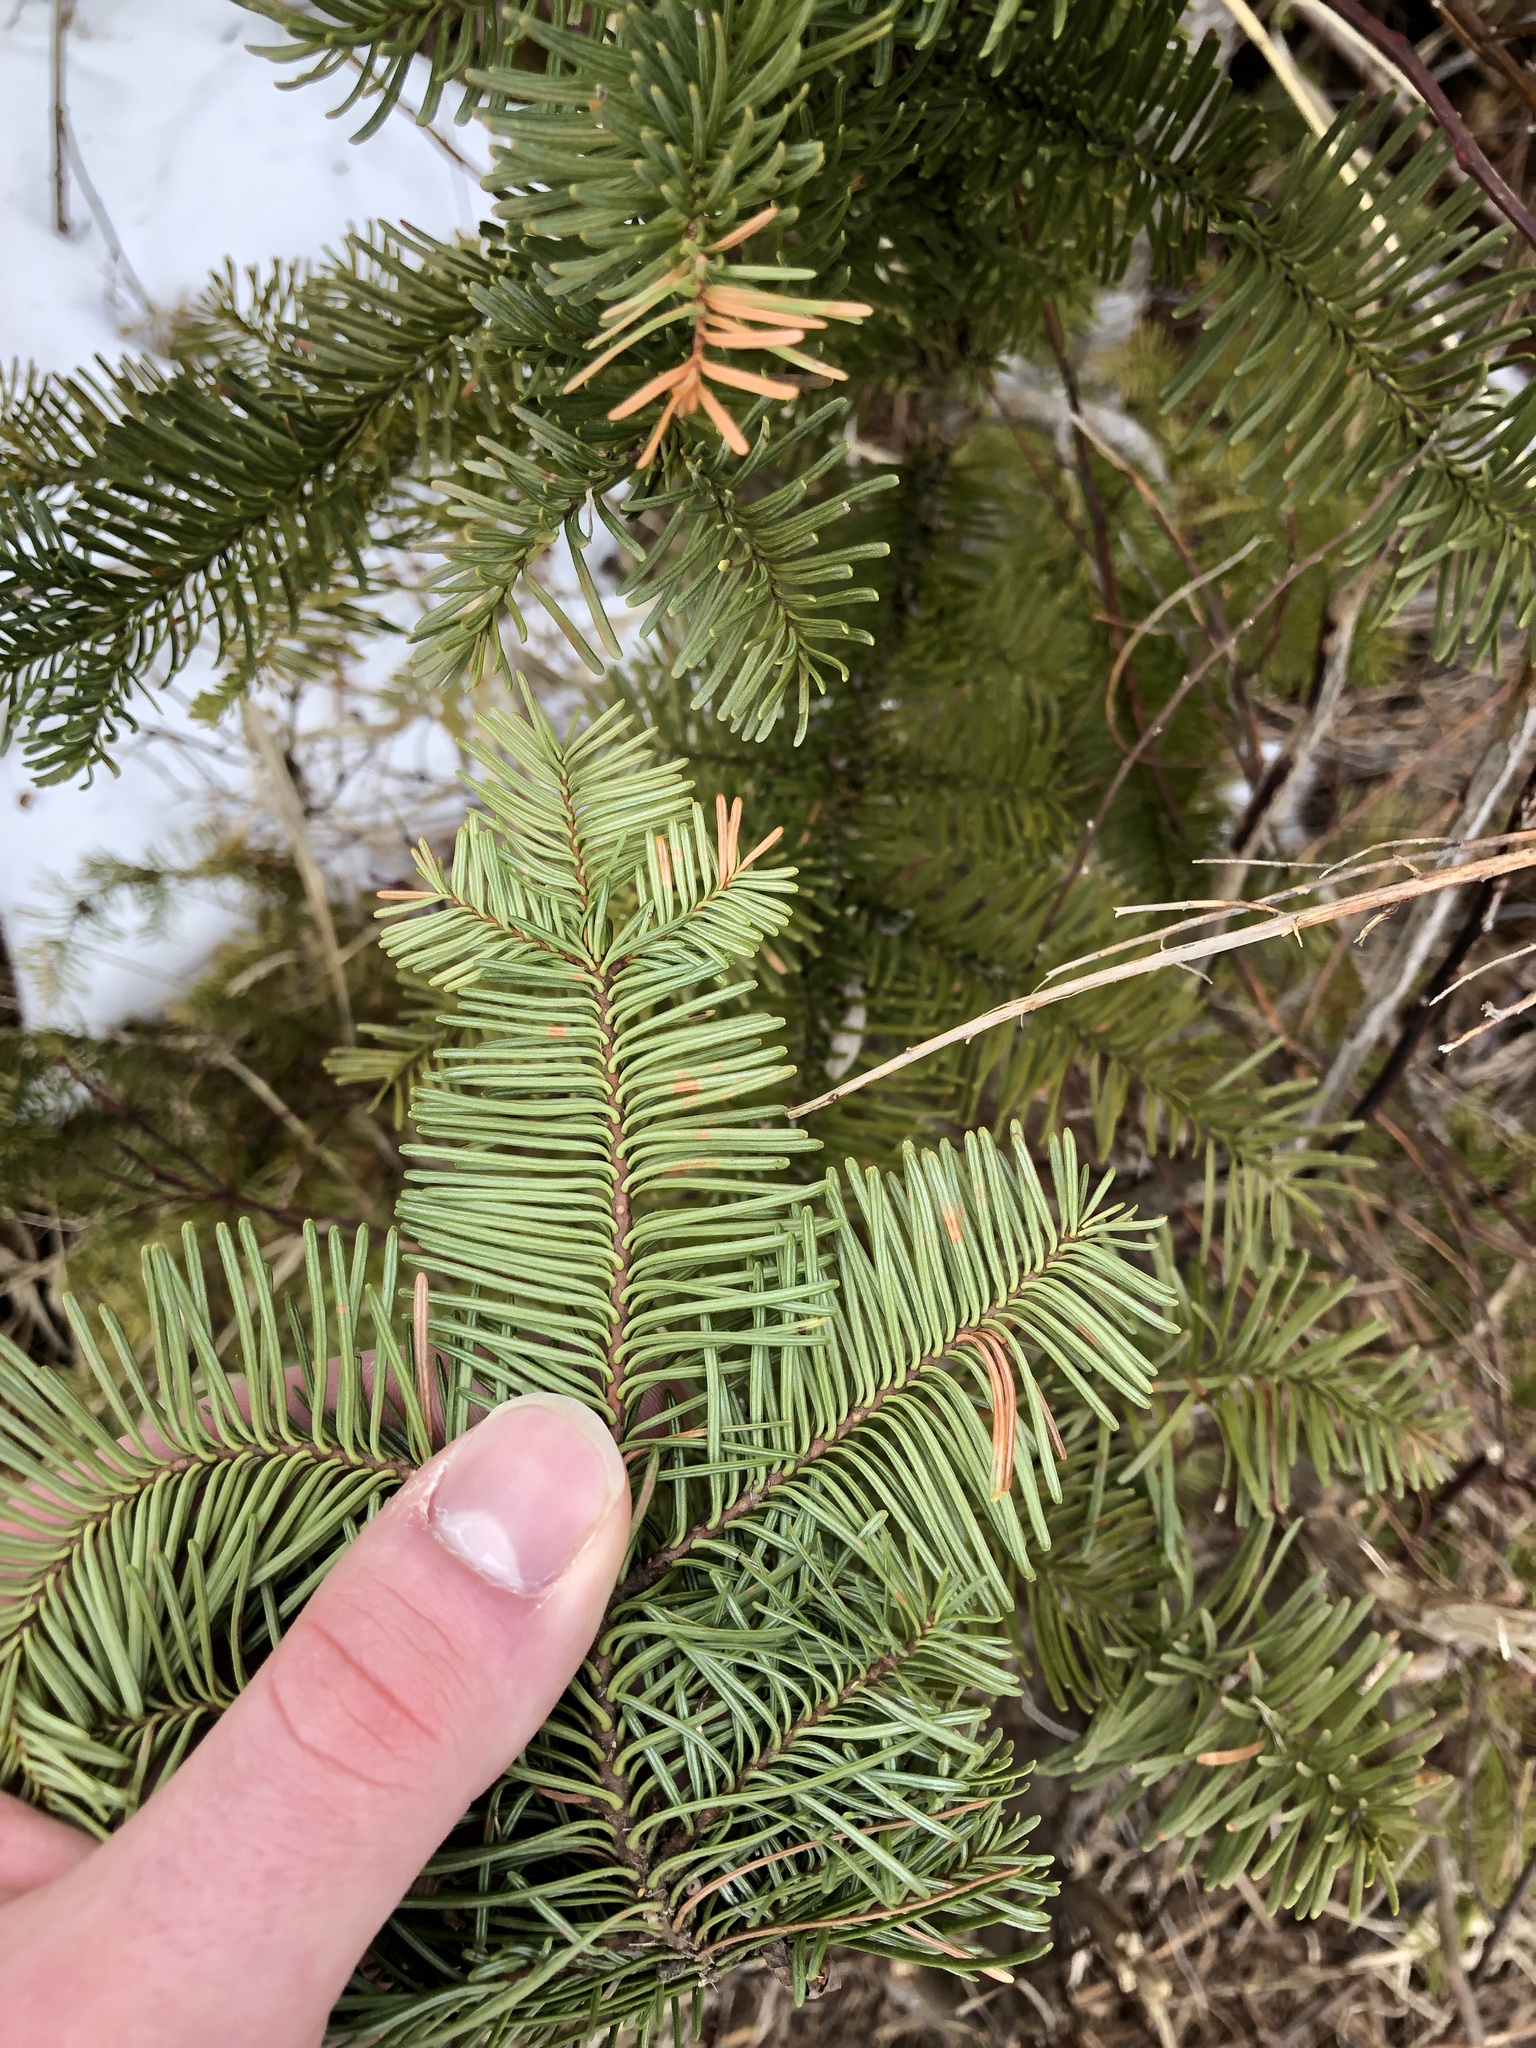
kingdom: Plantae
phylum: Tracheophyta
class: Pinopsida
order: Pinales
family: Pinaceae
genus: Abies
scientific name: Abies procera
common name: Noble fir
